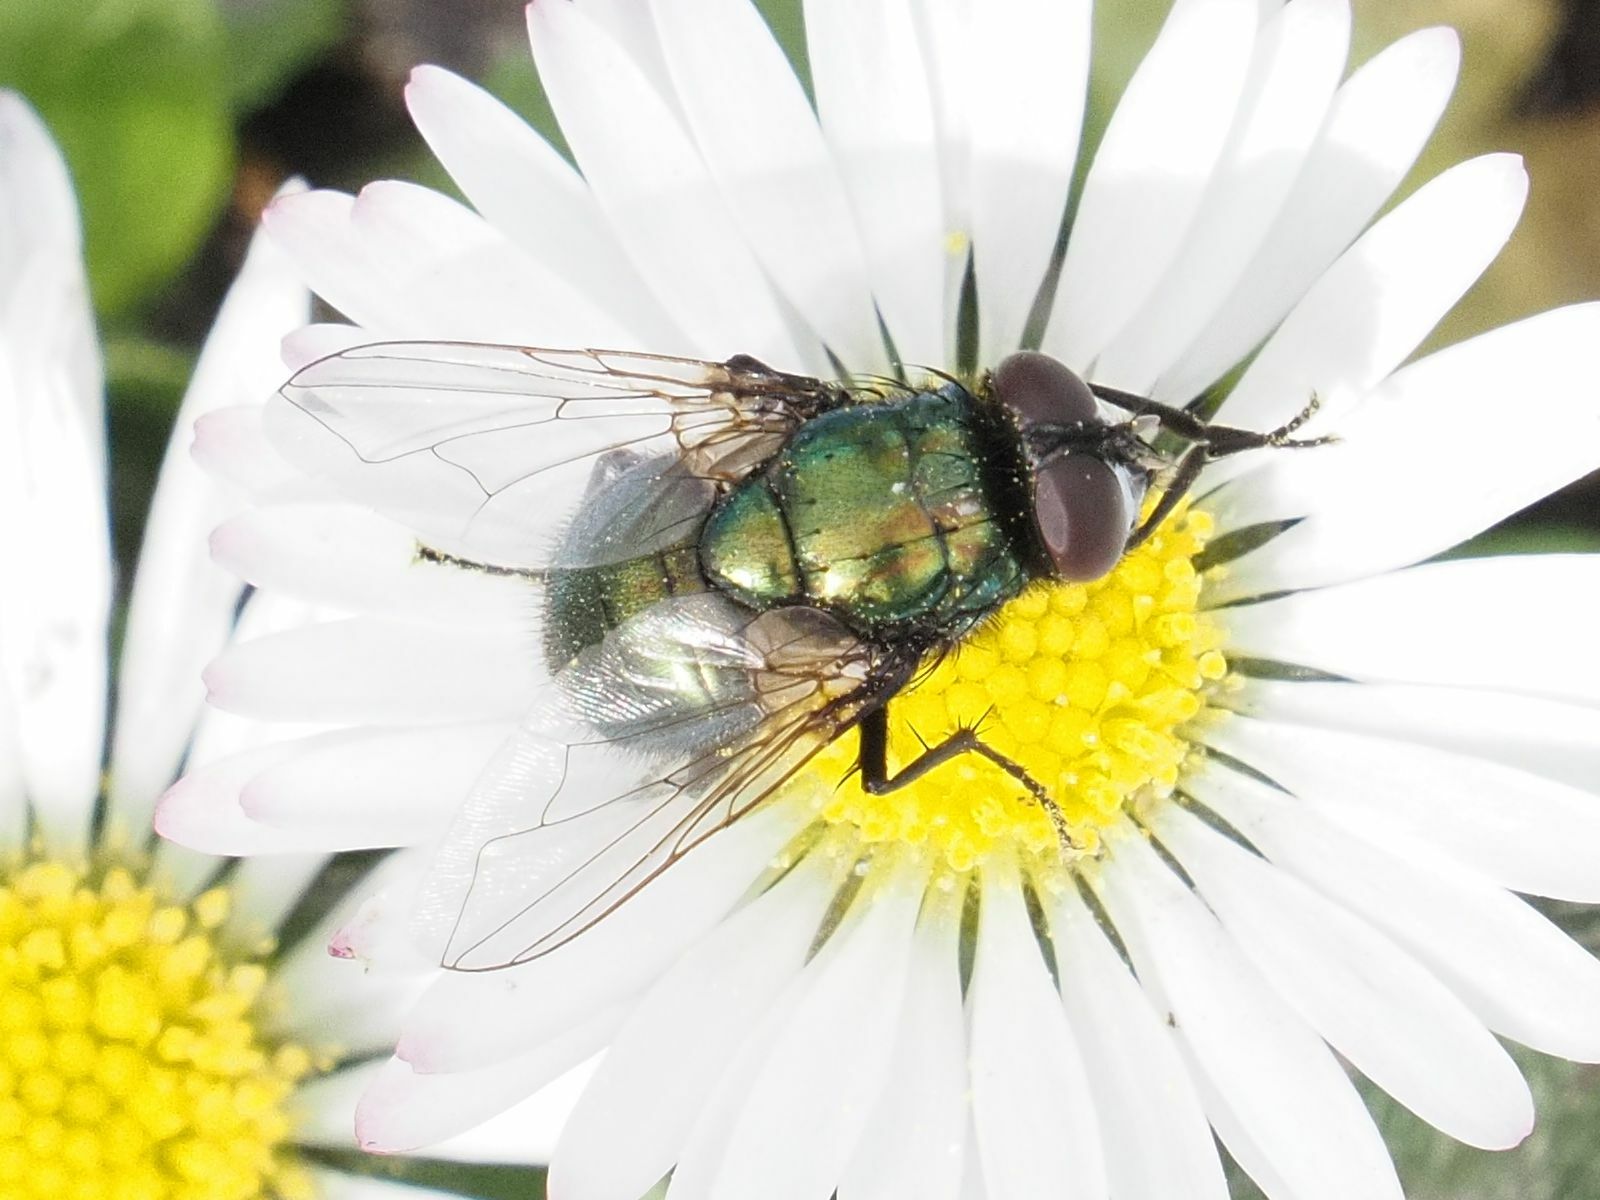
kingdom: Animalia
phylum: Arthropoda
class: Insecta
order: Diptera
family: Muscidae
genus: Neomyia
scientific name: Neomyia cornicina
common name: House fly
